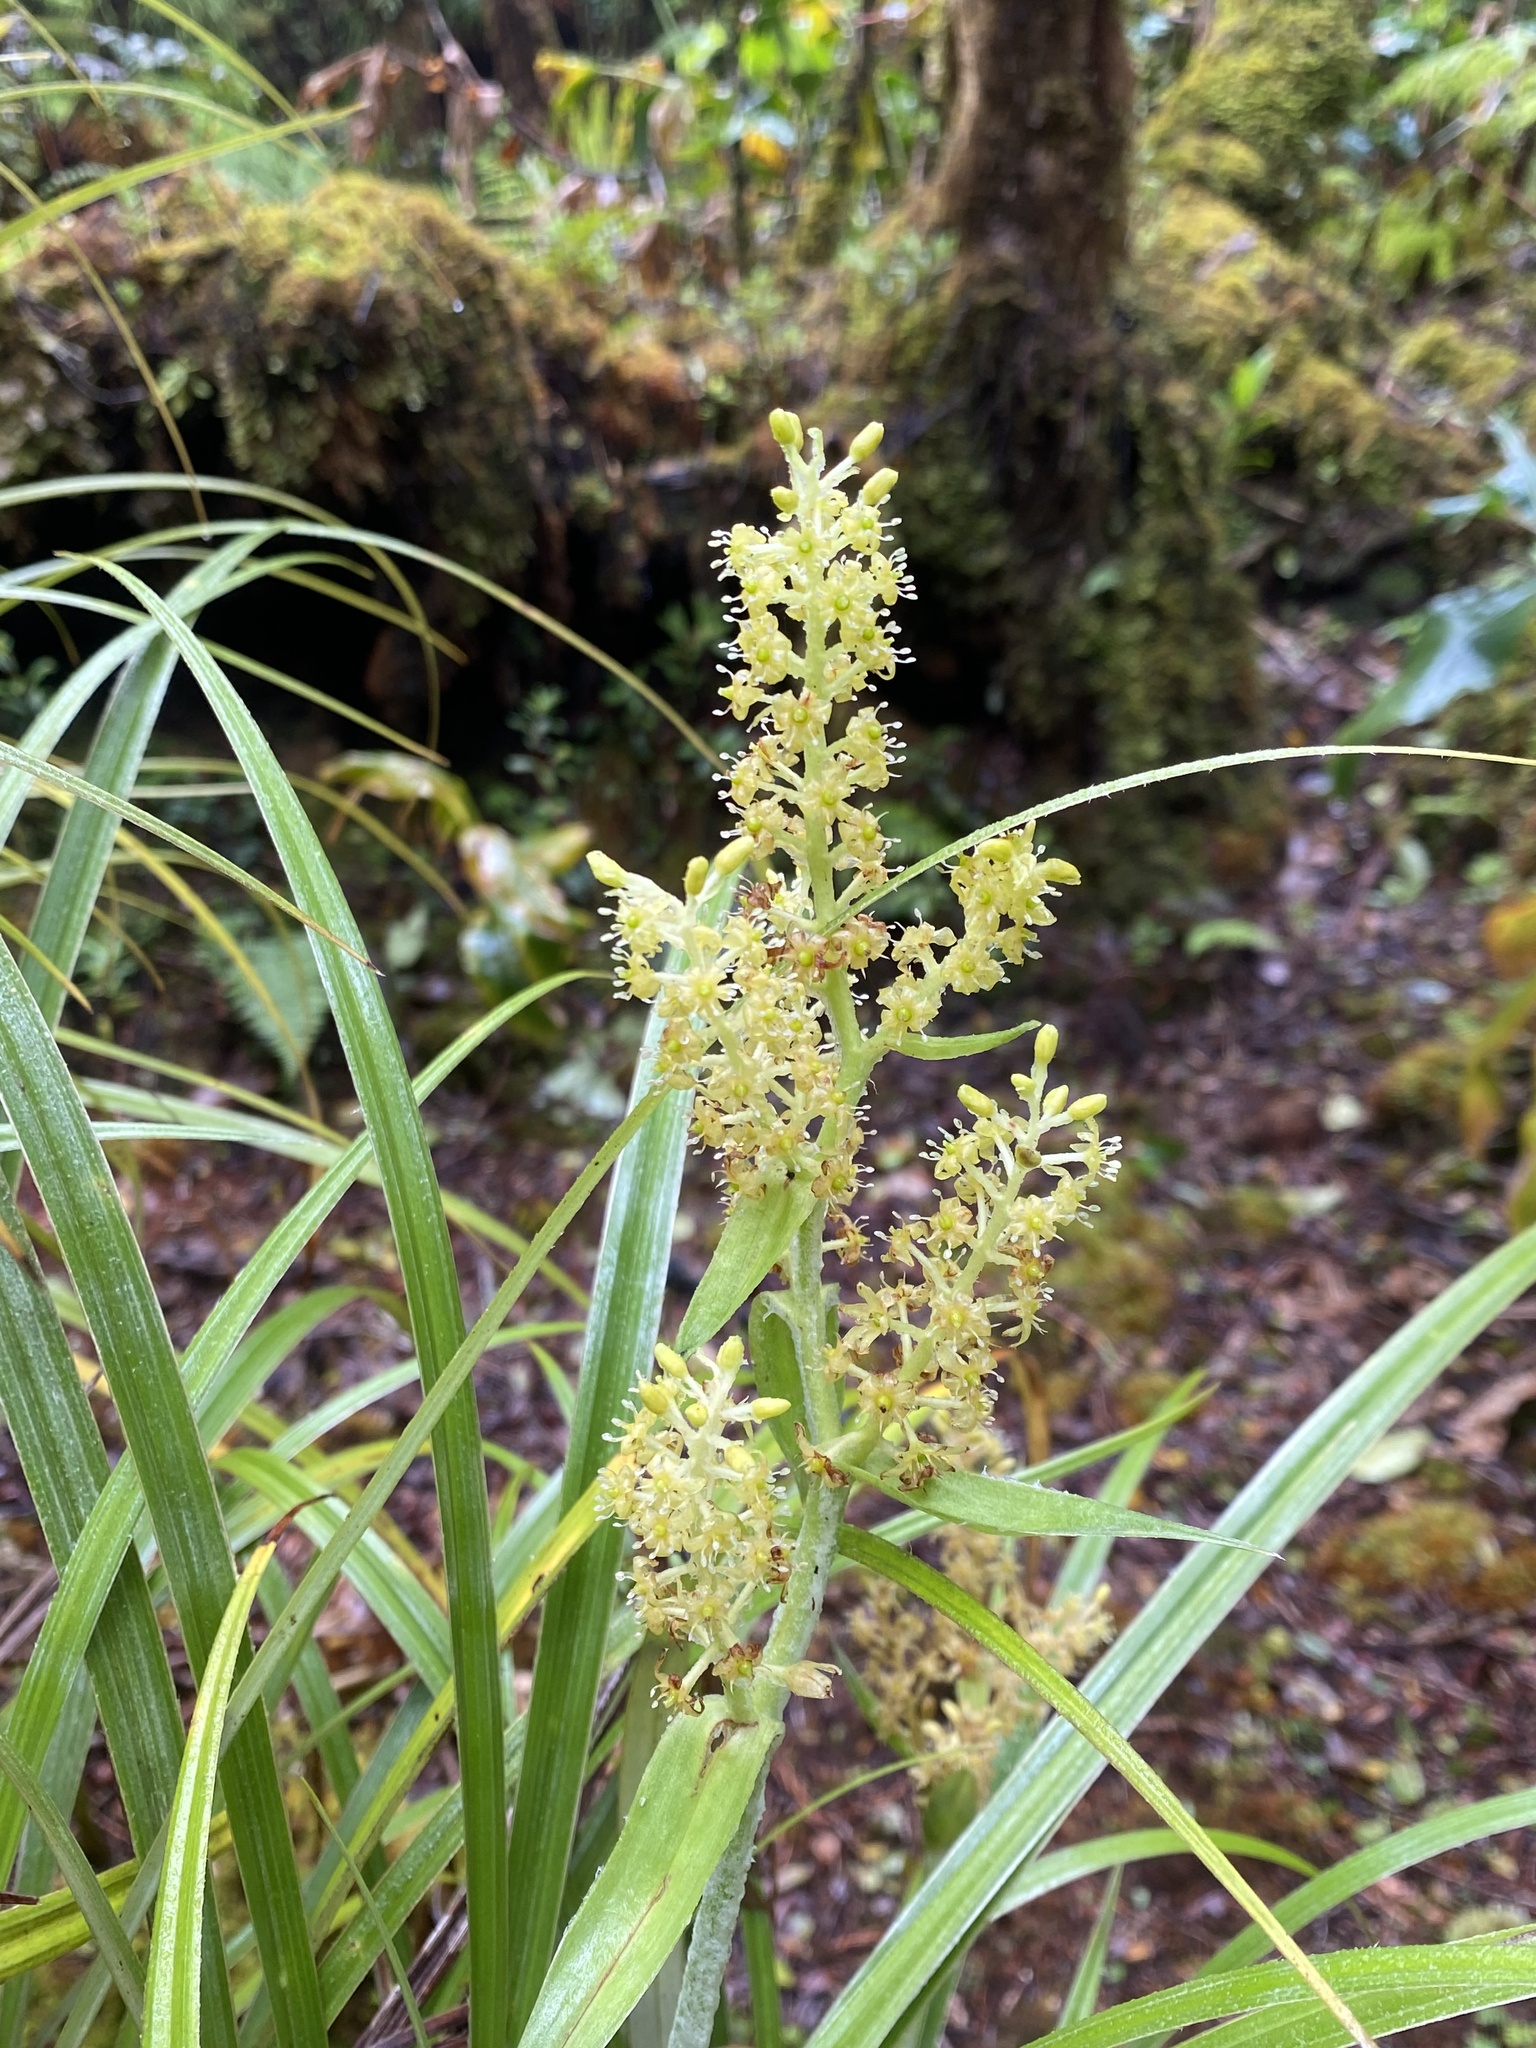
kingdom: Plantae
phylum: Tracheophyta
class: Liliopsida
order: Asparagales
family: Asteliaceae
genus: Astelia
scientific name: Astelia argyrocoma
